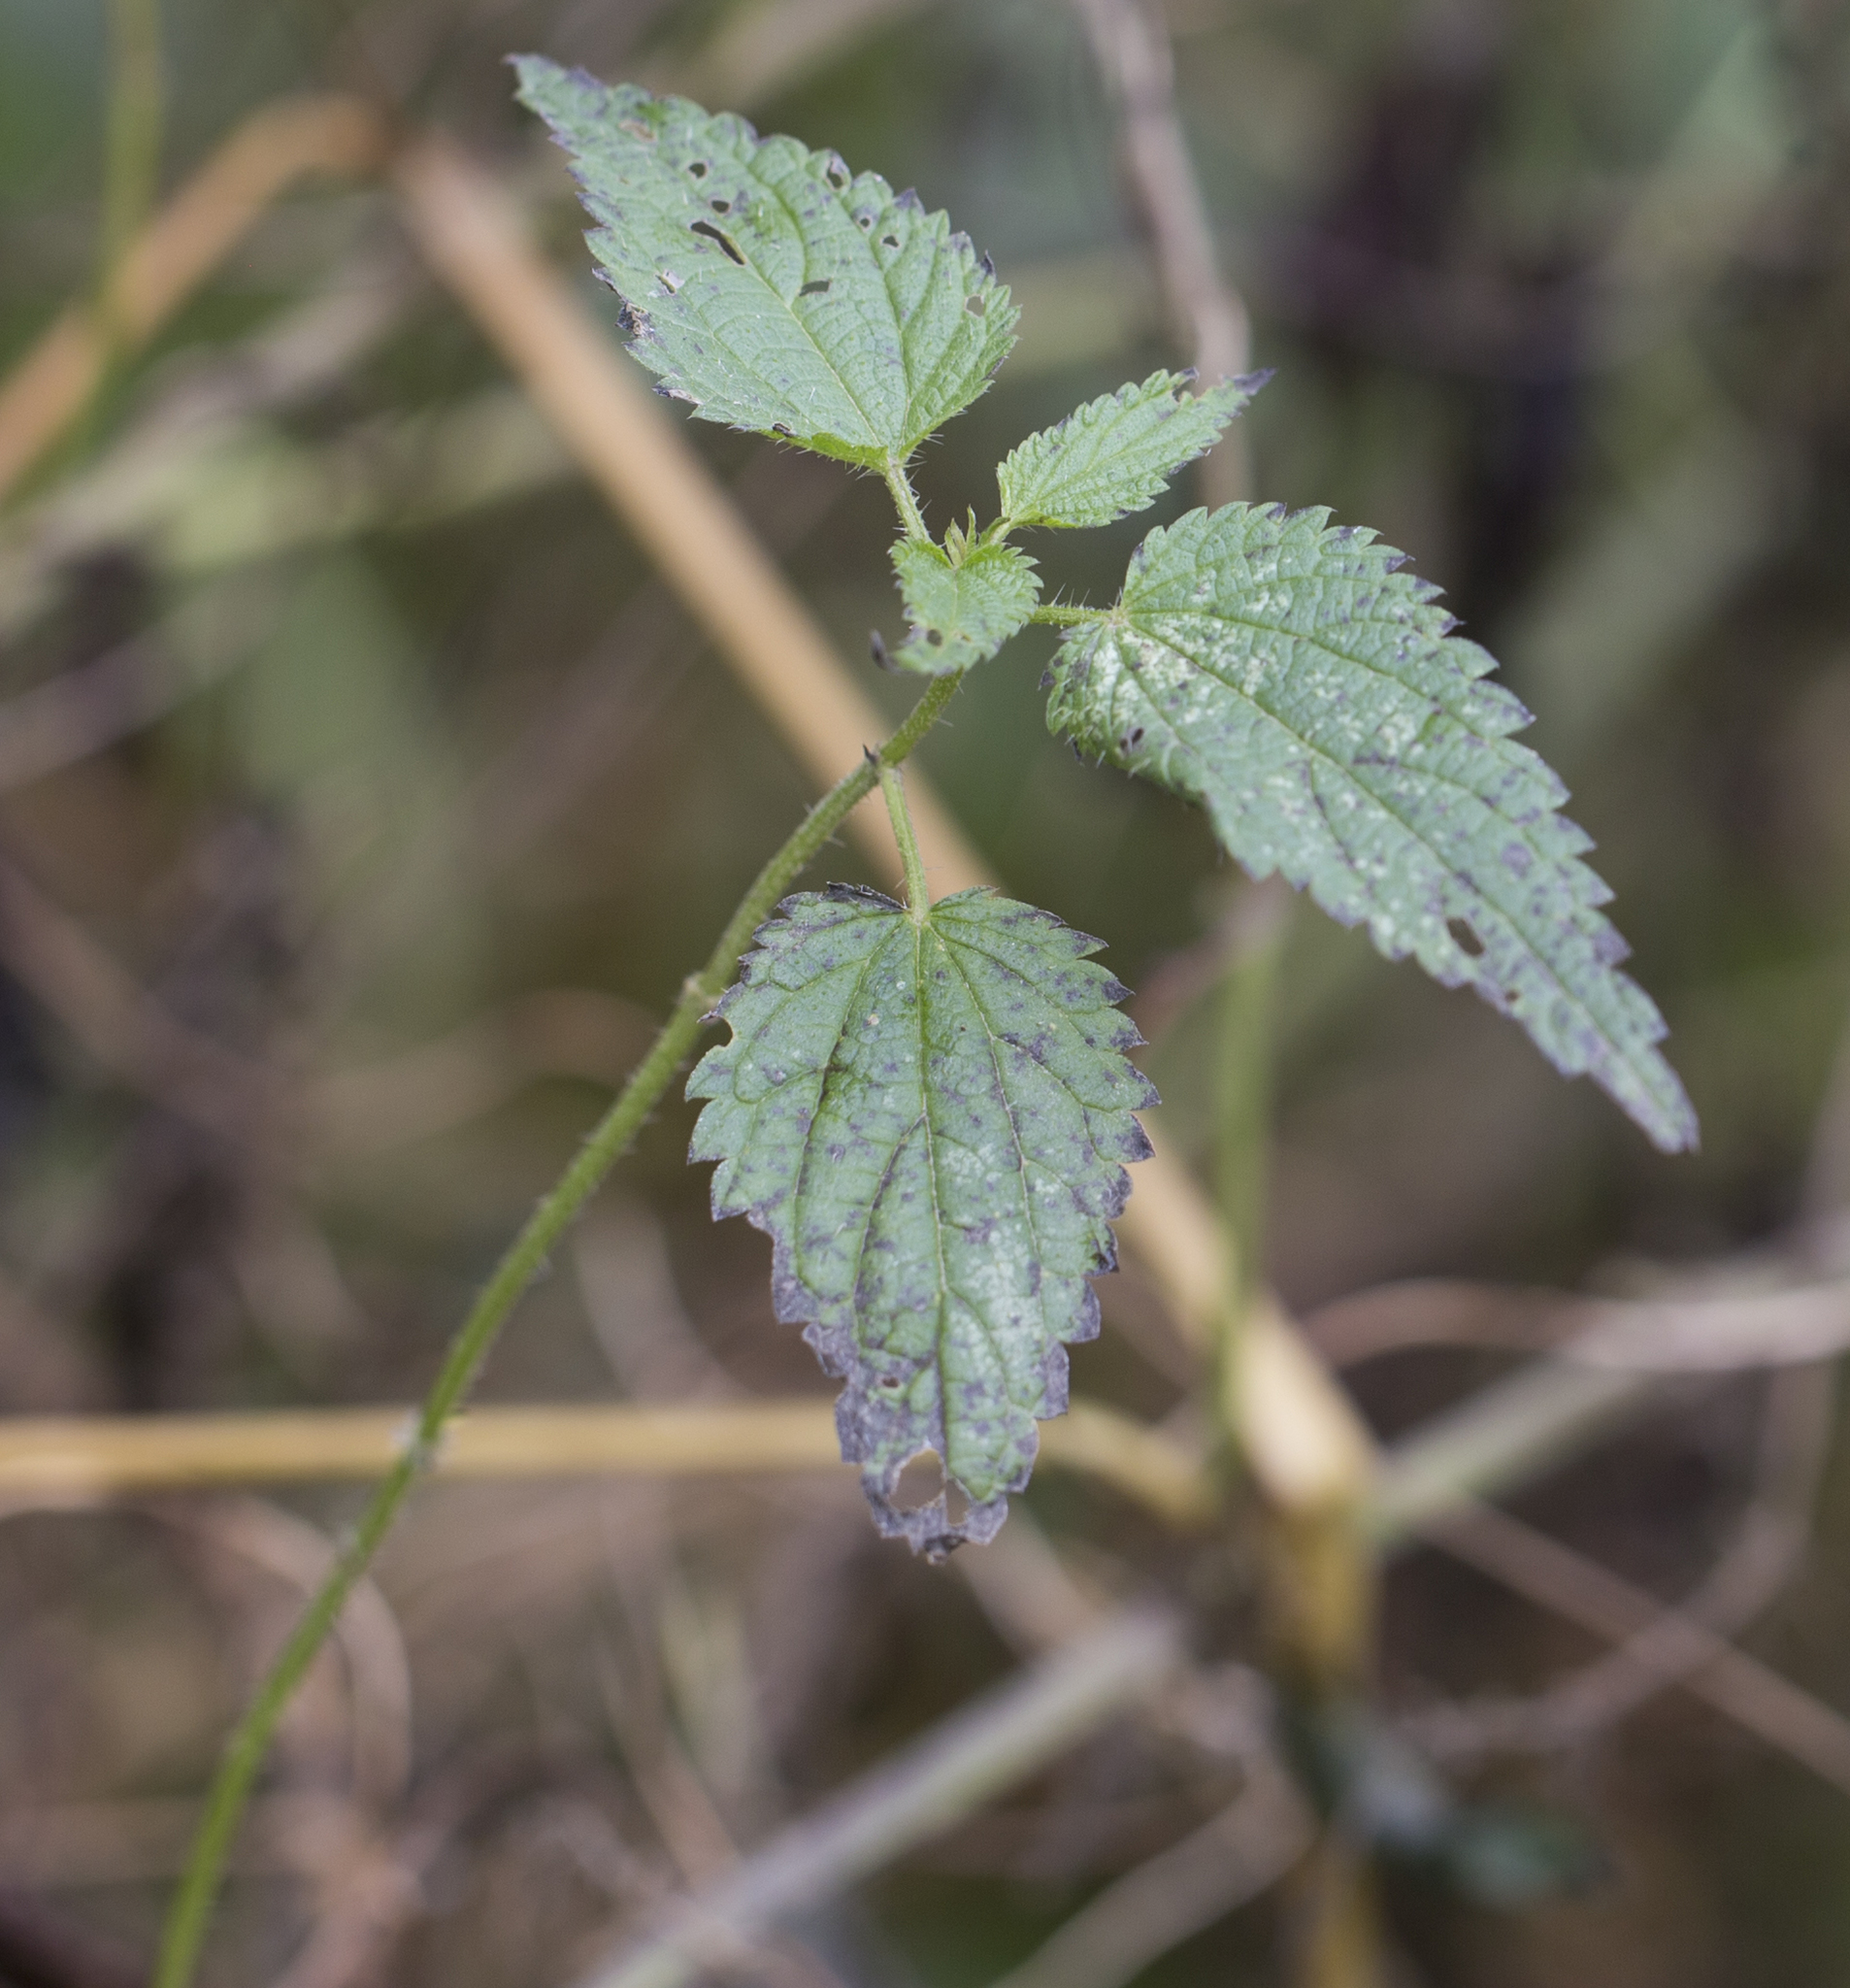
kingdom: Plantae
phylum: Tracheophyta
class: Magnoliopsida
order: Rosales
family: Urticaceae
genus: Urtica
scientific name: Urtica dioica
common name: Common nettle
